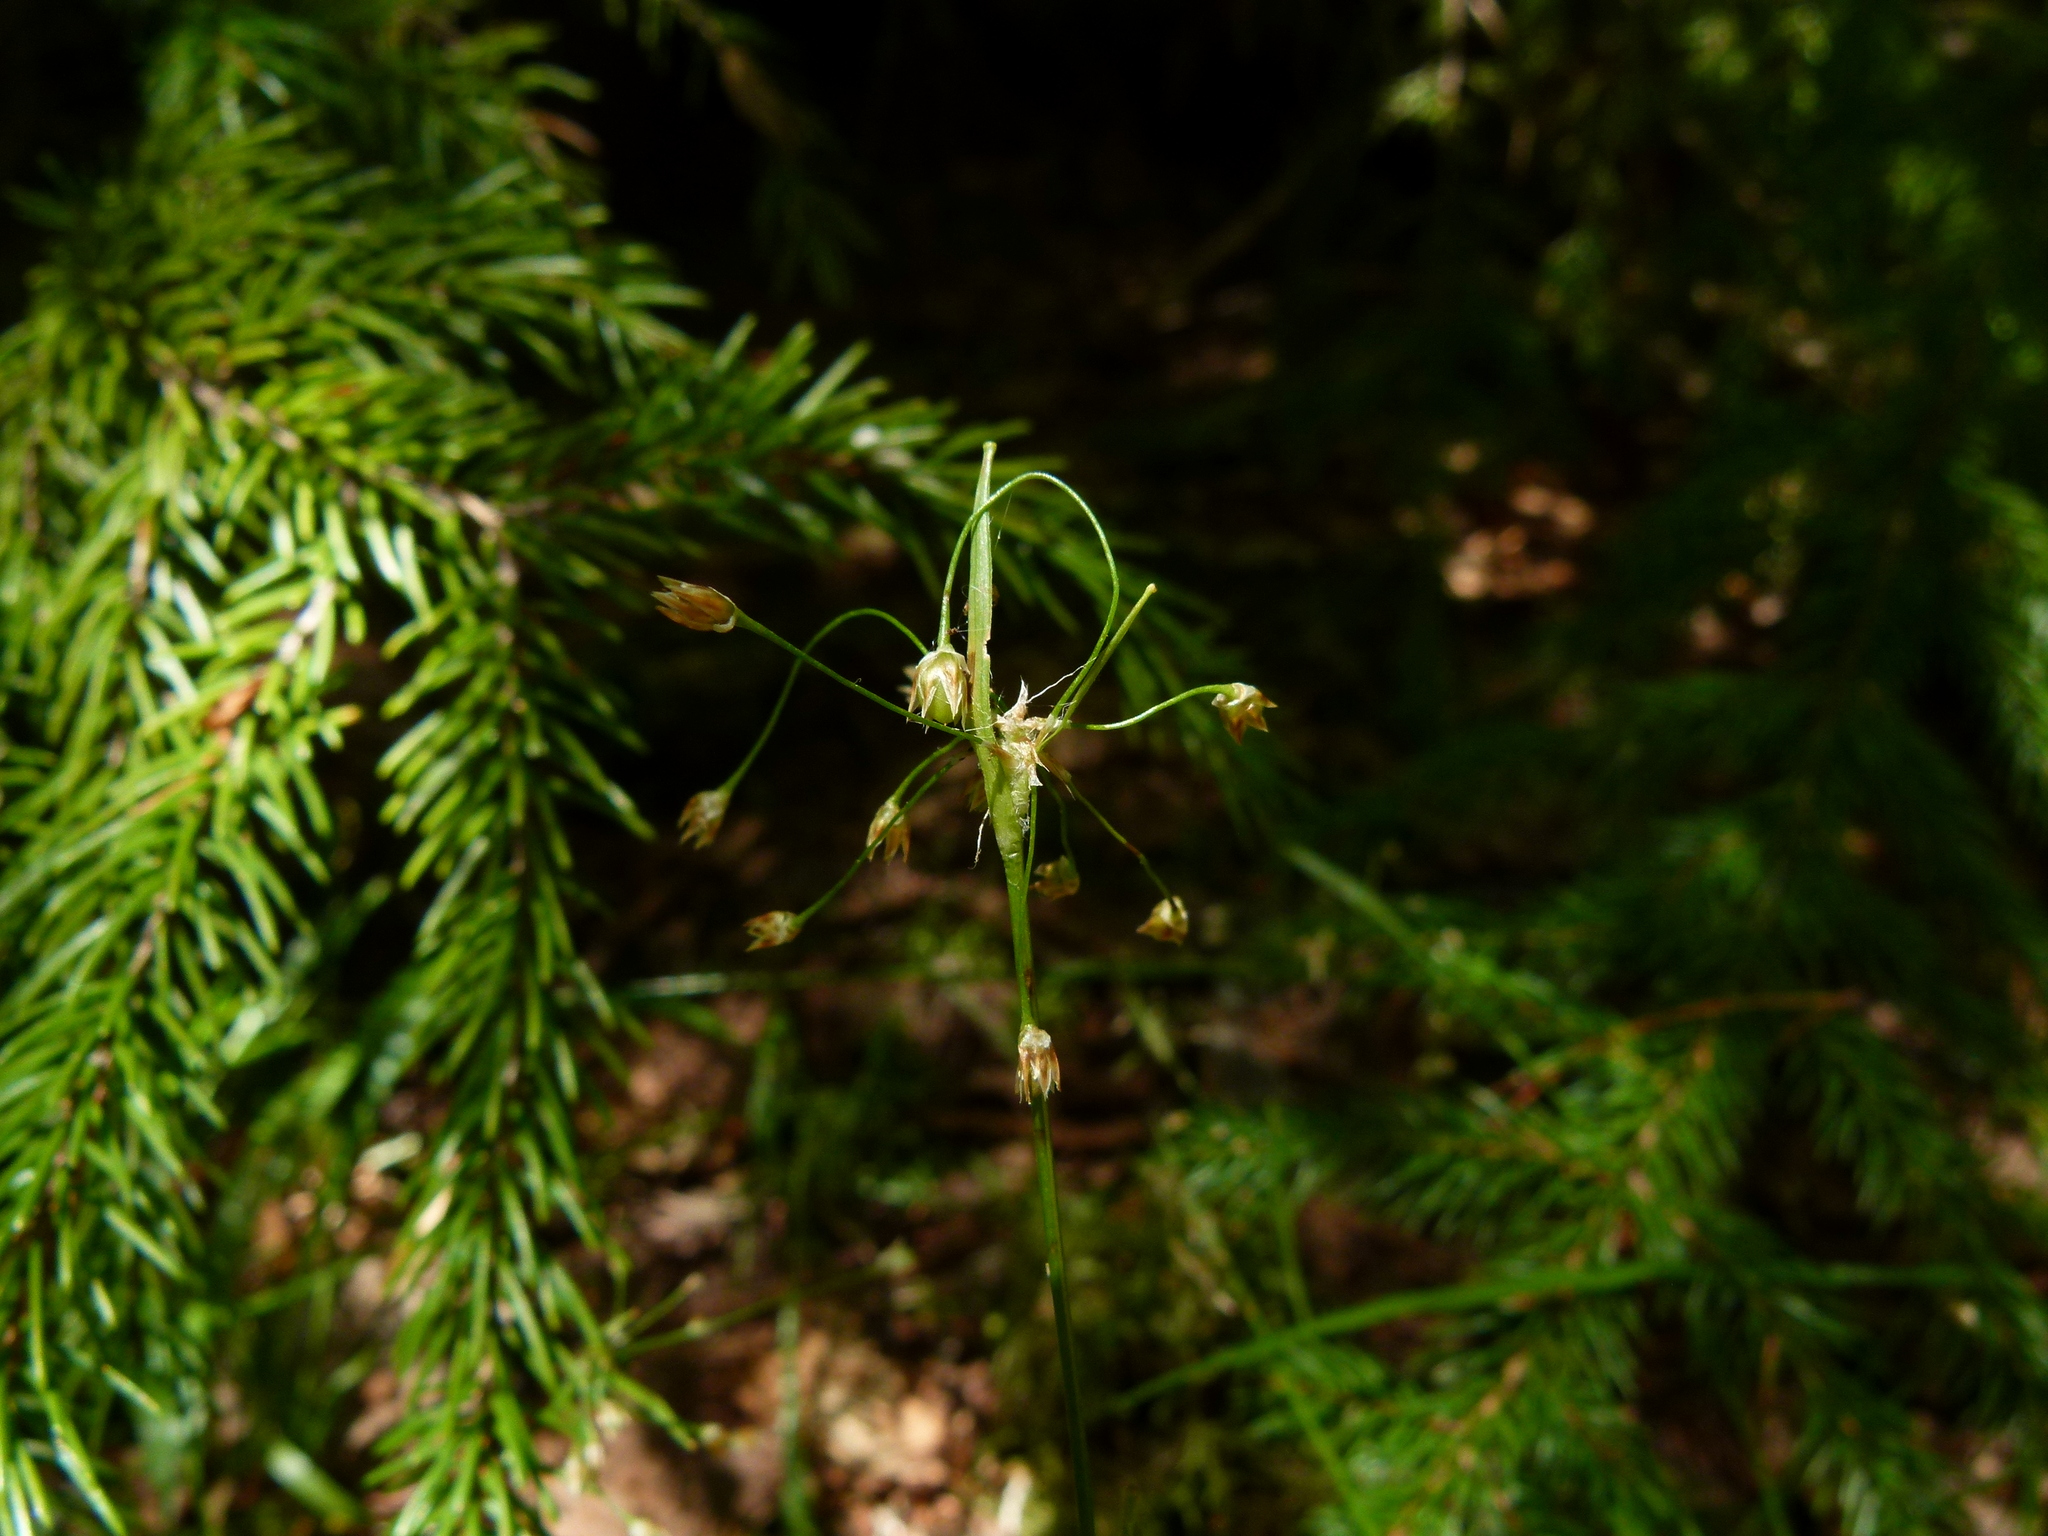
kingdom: Plantae
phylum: Tracheophyta
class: Liliopsida
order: Poales
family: Juncaceae
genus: Luzula
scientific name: Luzula acuminata
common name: Hairy woodrush
